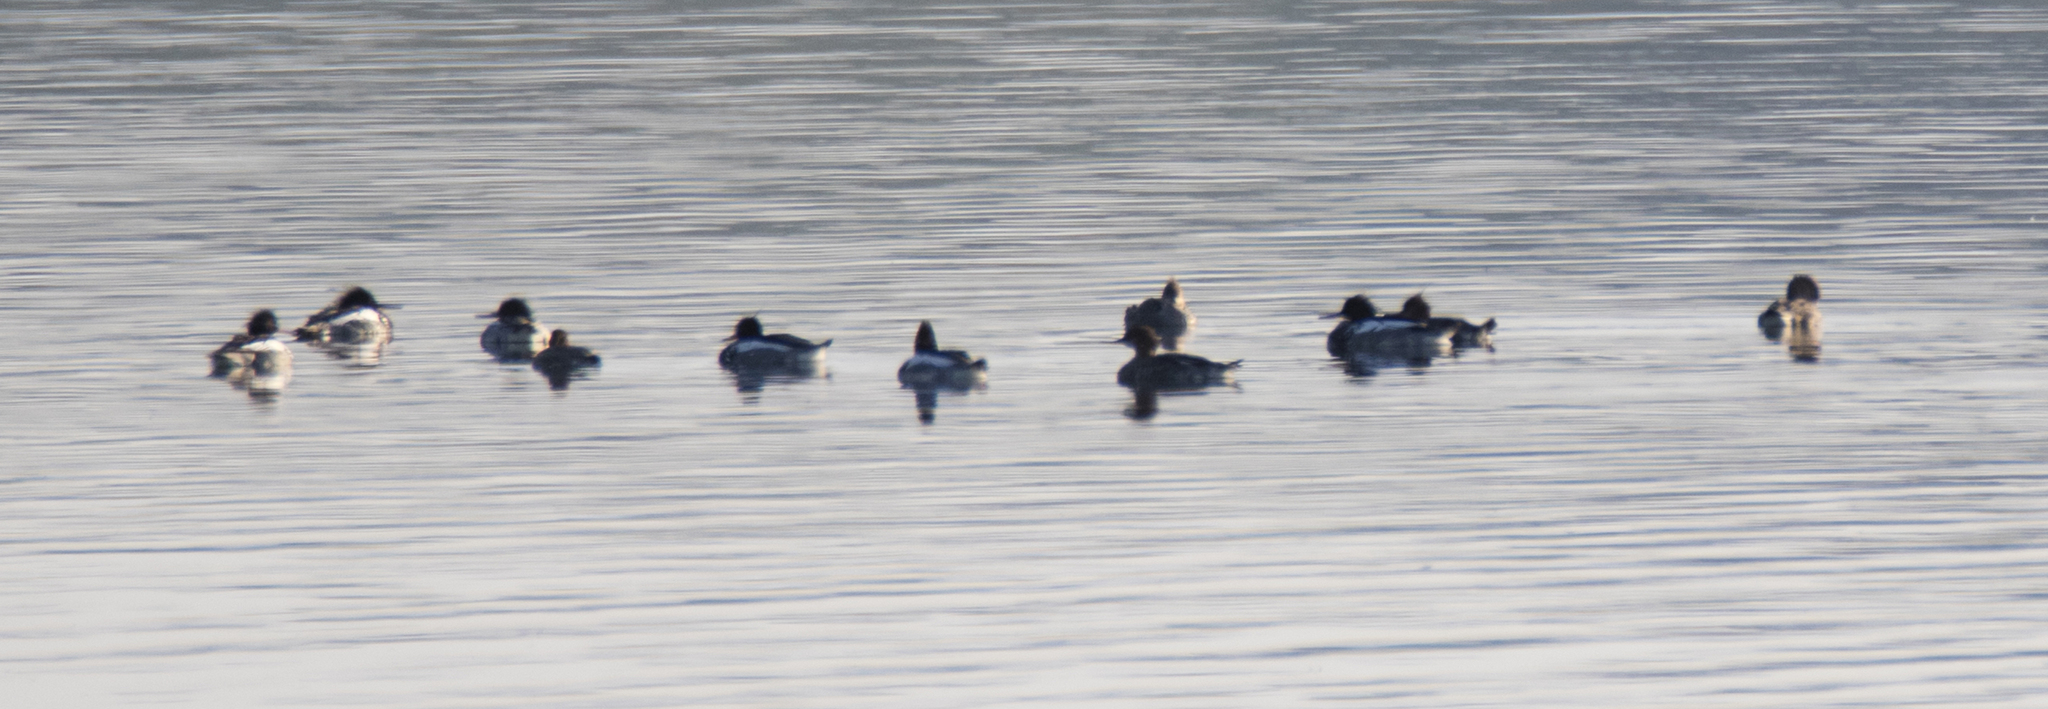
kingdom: Animalia
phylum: Chordata
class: Aves
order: Anseriformes
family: Anatidae
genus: Mergus
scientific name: Mergus serrator
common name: Red-breasted merganser
